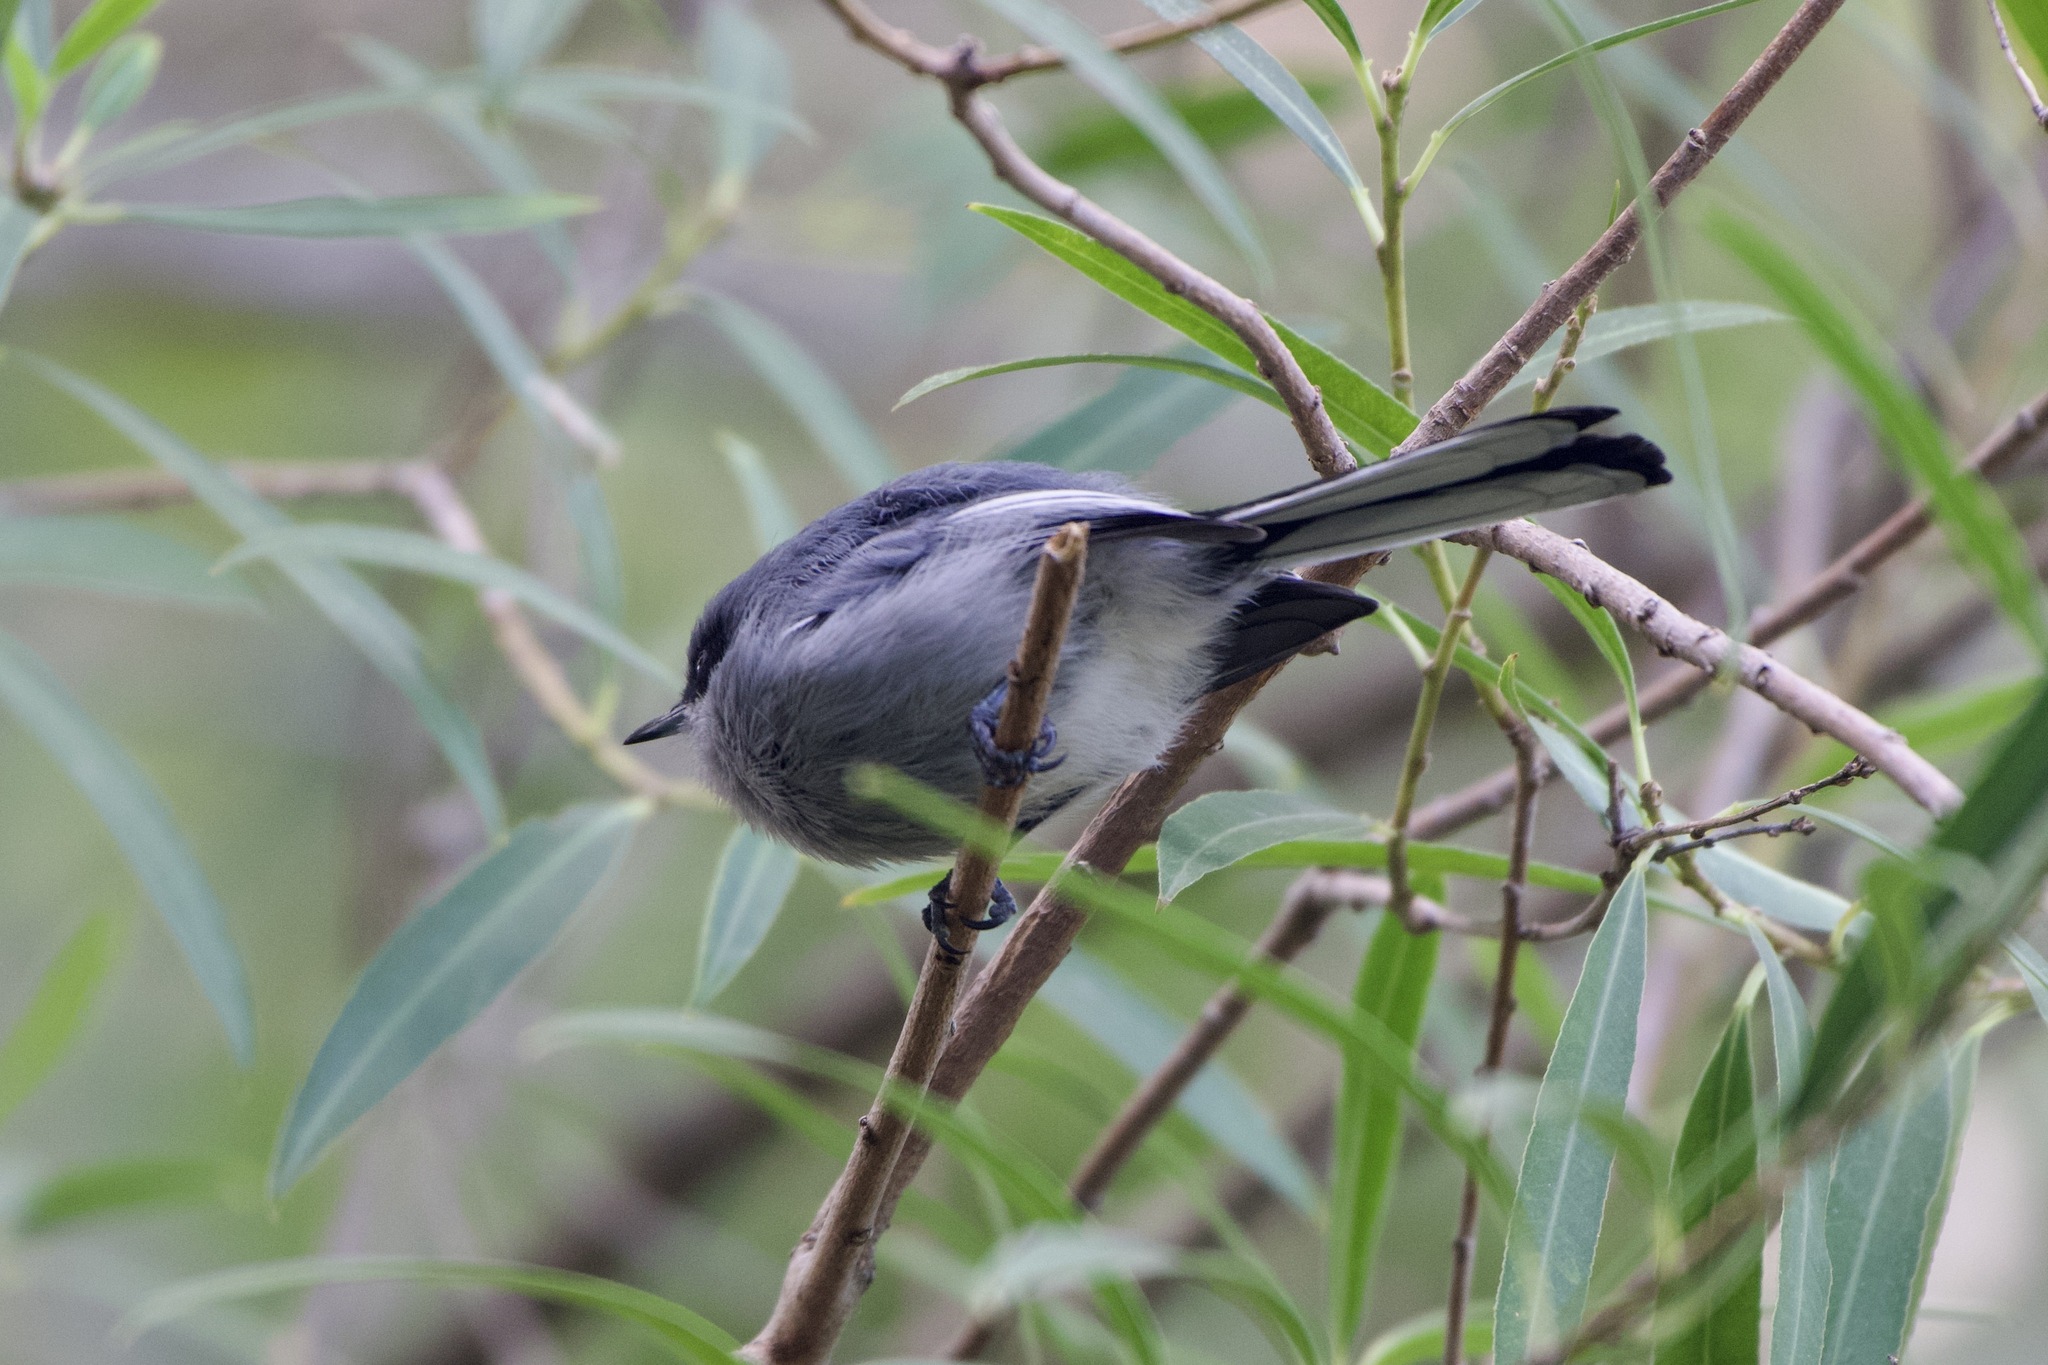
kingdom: Animalia
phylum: Chordata
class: Aves
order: Passeriformes
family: Polioptilidae
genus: Polioptila
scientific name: Polioptila dumicola
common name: Masked gnatcatcher
